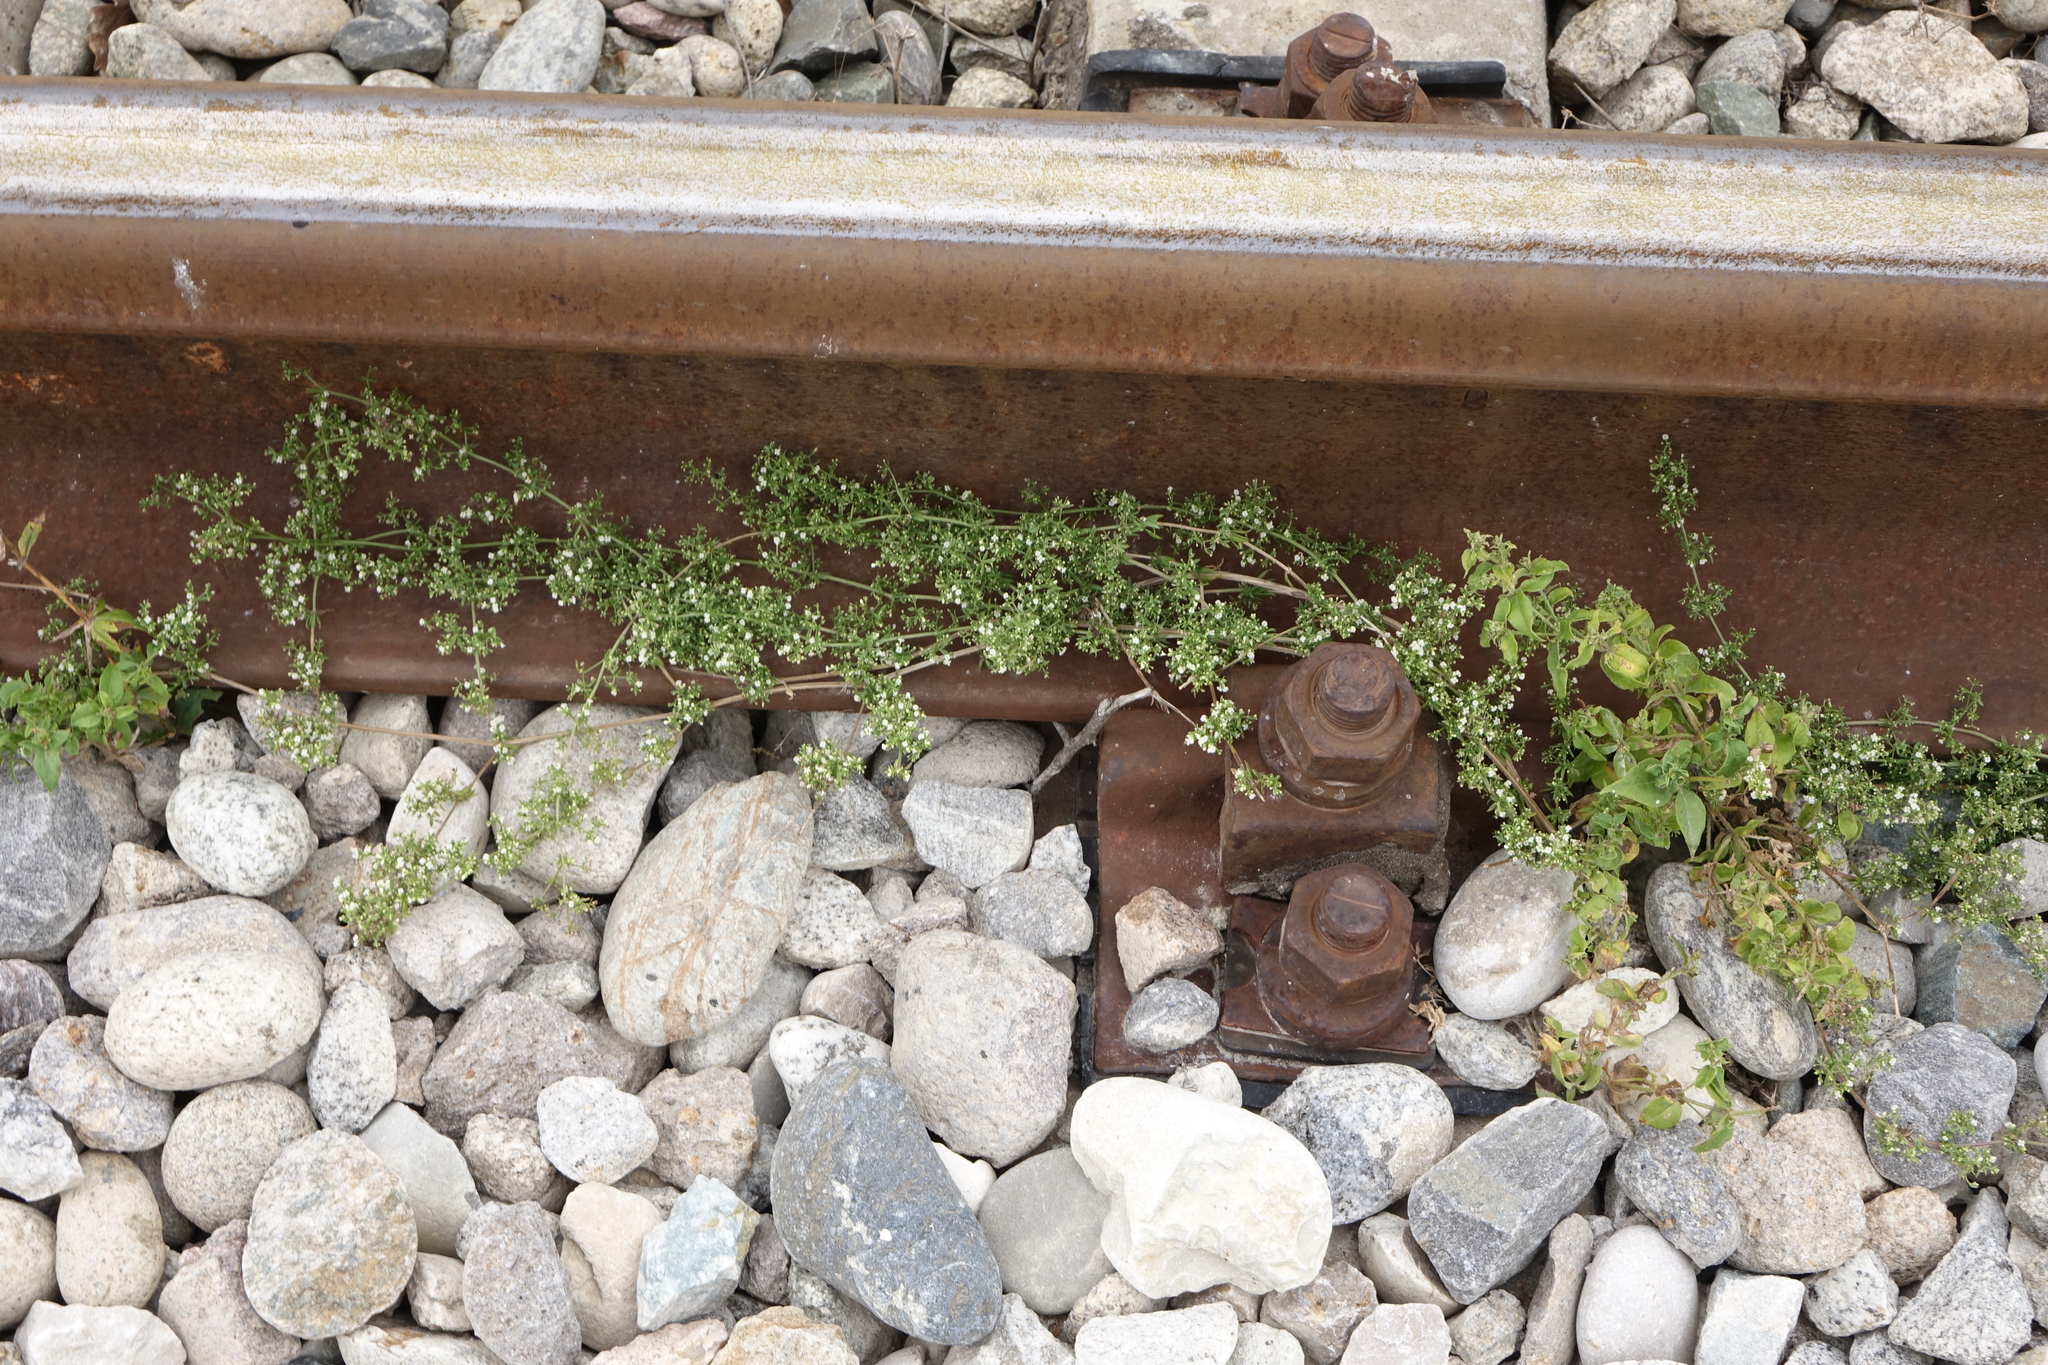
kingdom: Plantae
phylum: Tracheophyta
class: Magnoliopsida
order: Gentianales
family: Rubiaceae
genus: Galium
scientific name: Galium humifusum
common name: Spreading bedstraw
